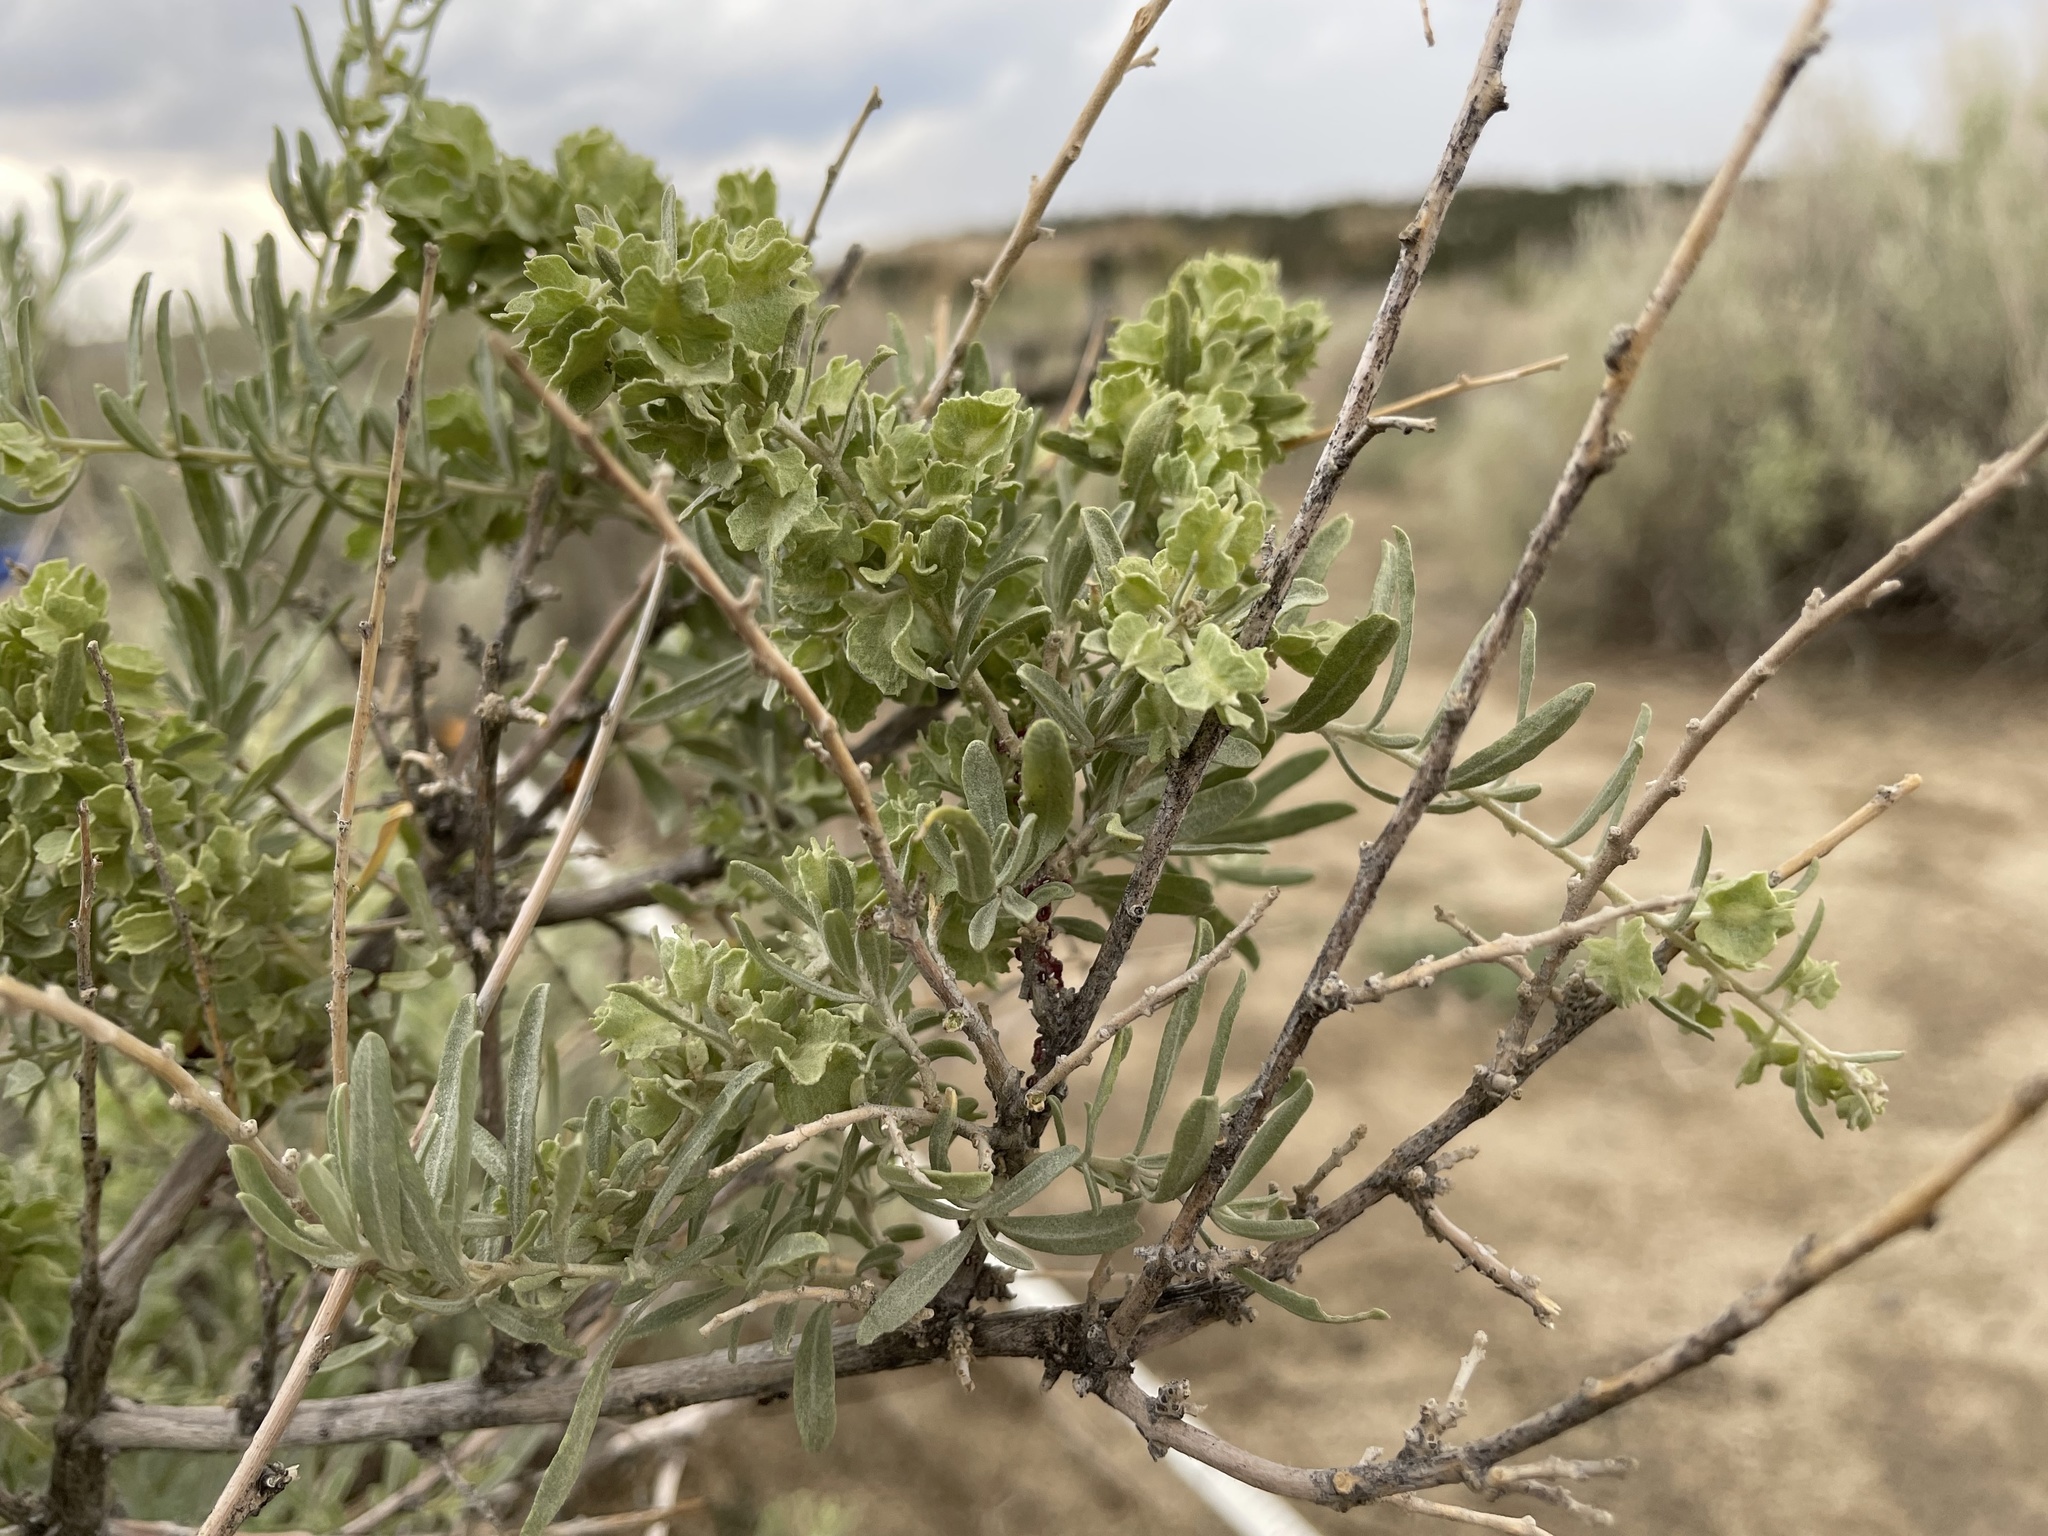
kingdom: Plantae
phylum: Tracheophyta
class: Magnoliopsida
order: Caryophyllales
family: Amaranthaceae
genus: Atriplex
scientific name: Atriplex canescens
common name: Four-wing saltbush
